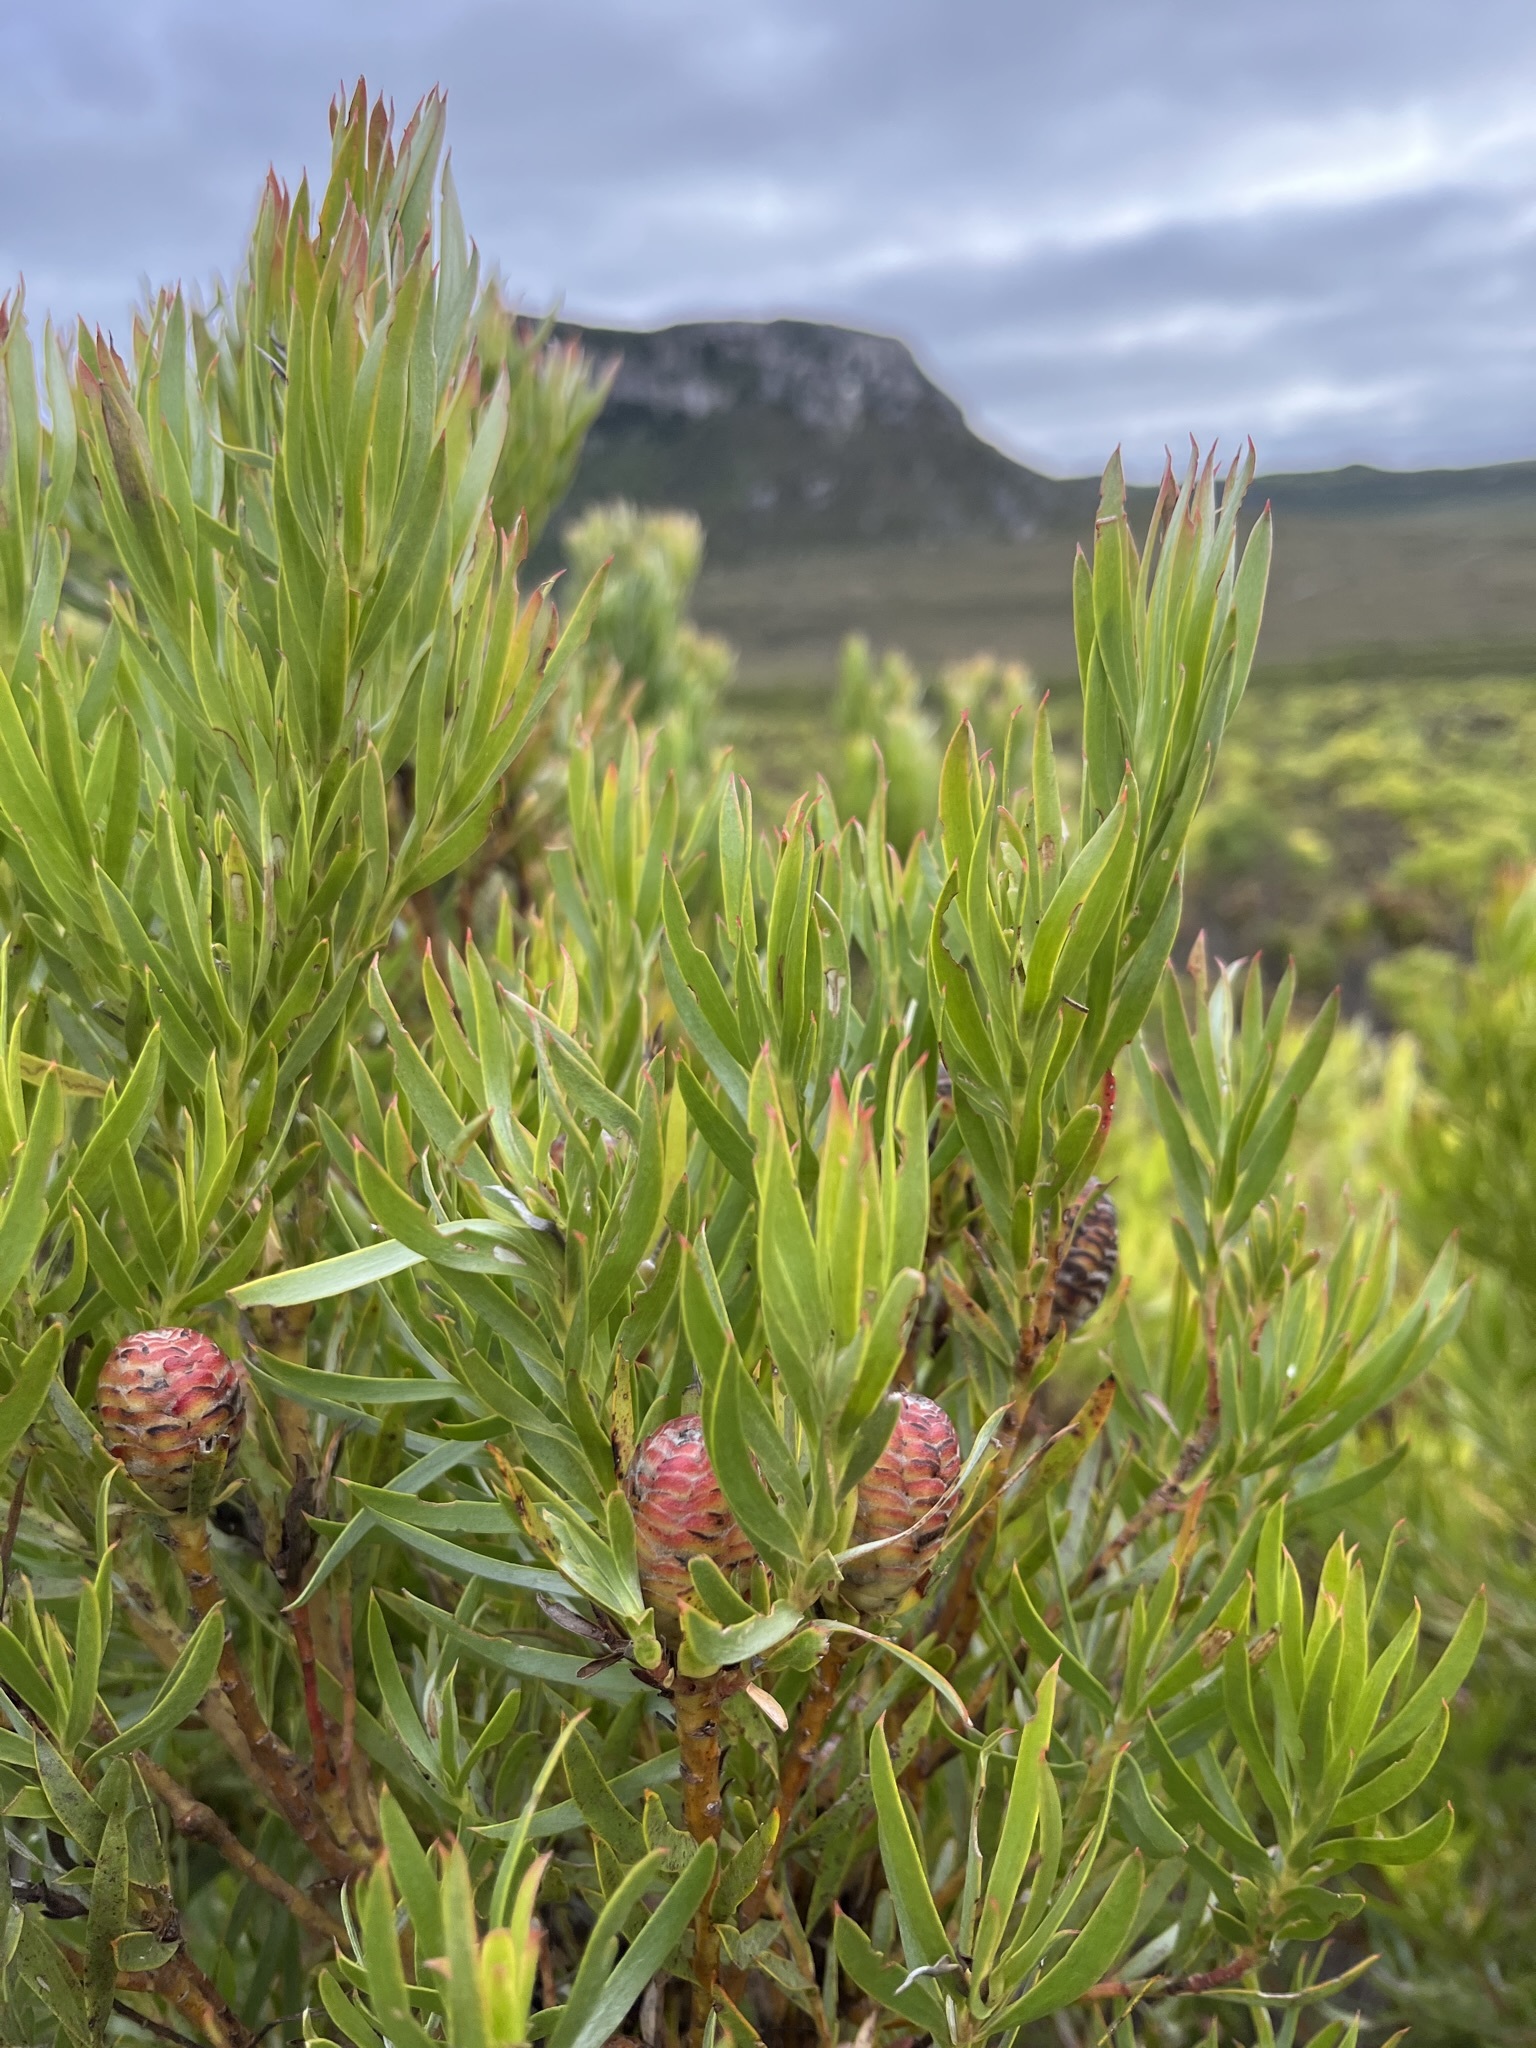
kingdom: Plantae
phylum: Tracheophyta
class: Magnoliopsida
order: Proteales
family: Proteaceae
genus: Leucadendron
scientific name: Leucadendron xanthoconus
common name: Sickle-leaf conebush
